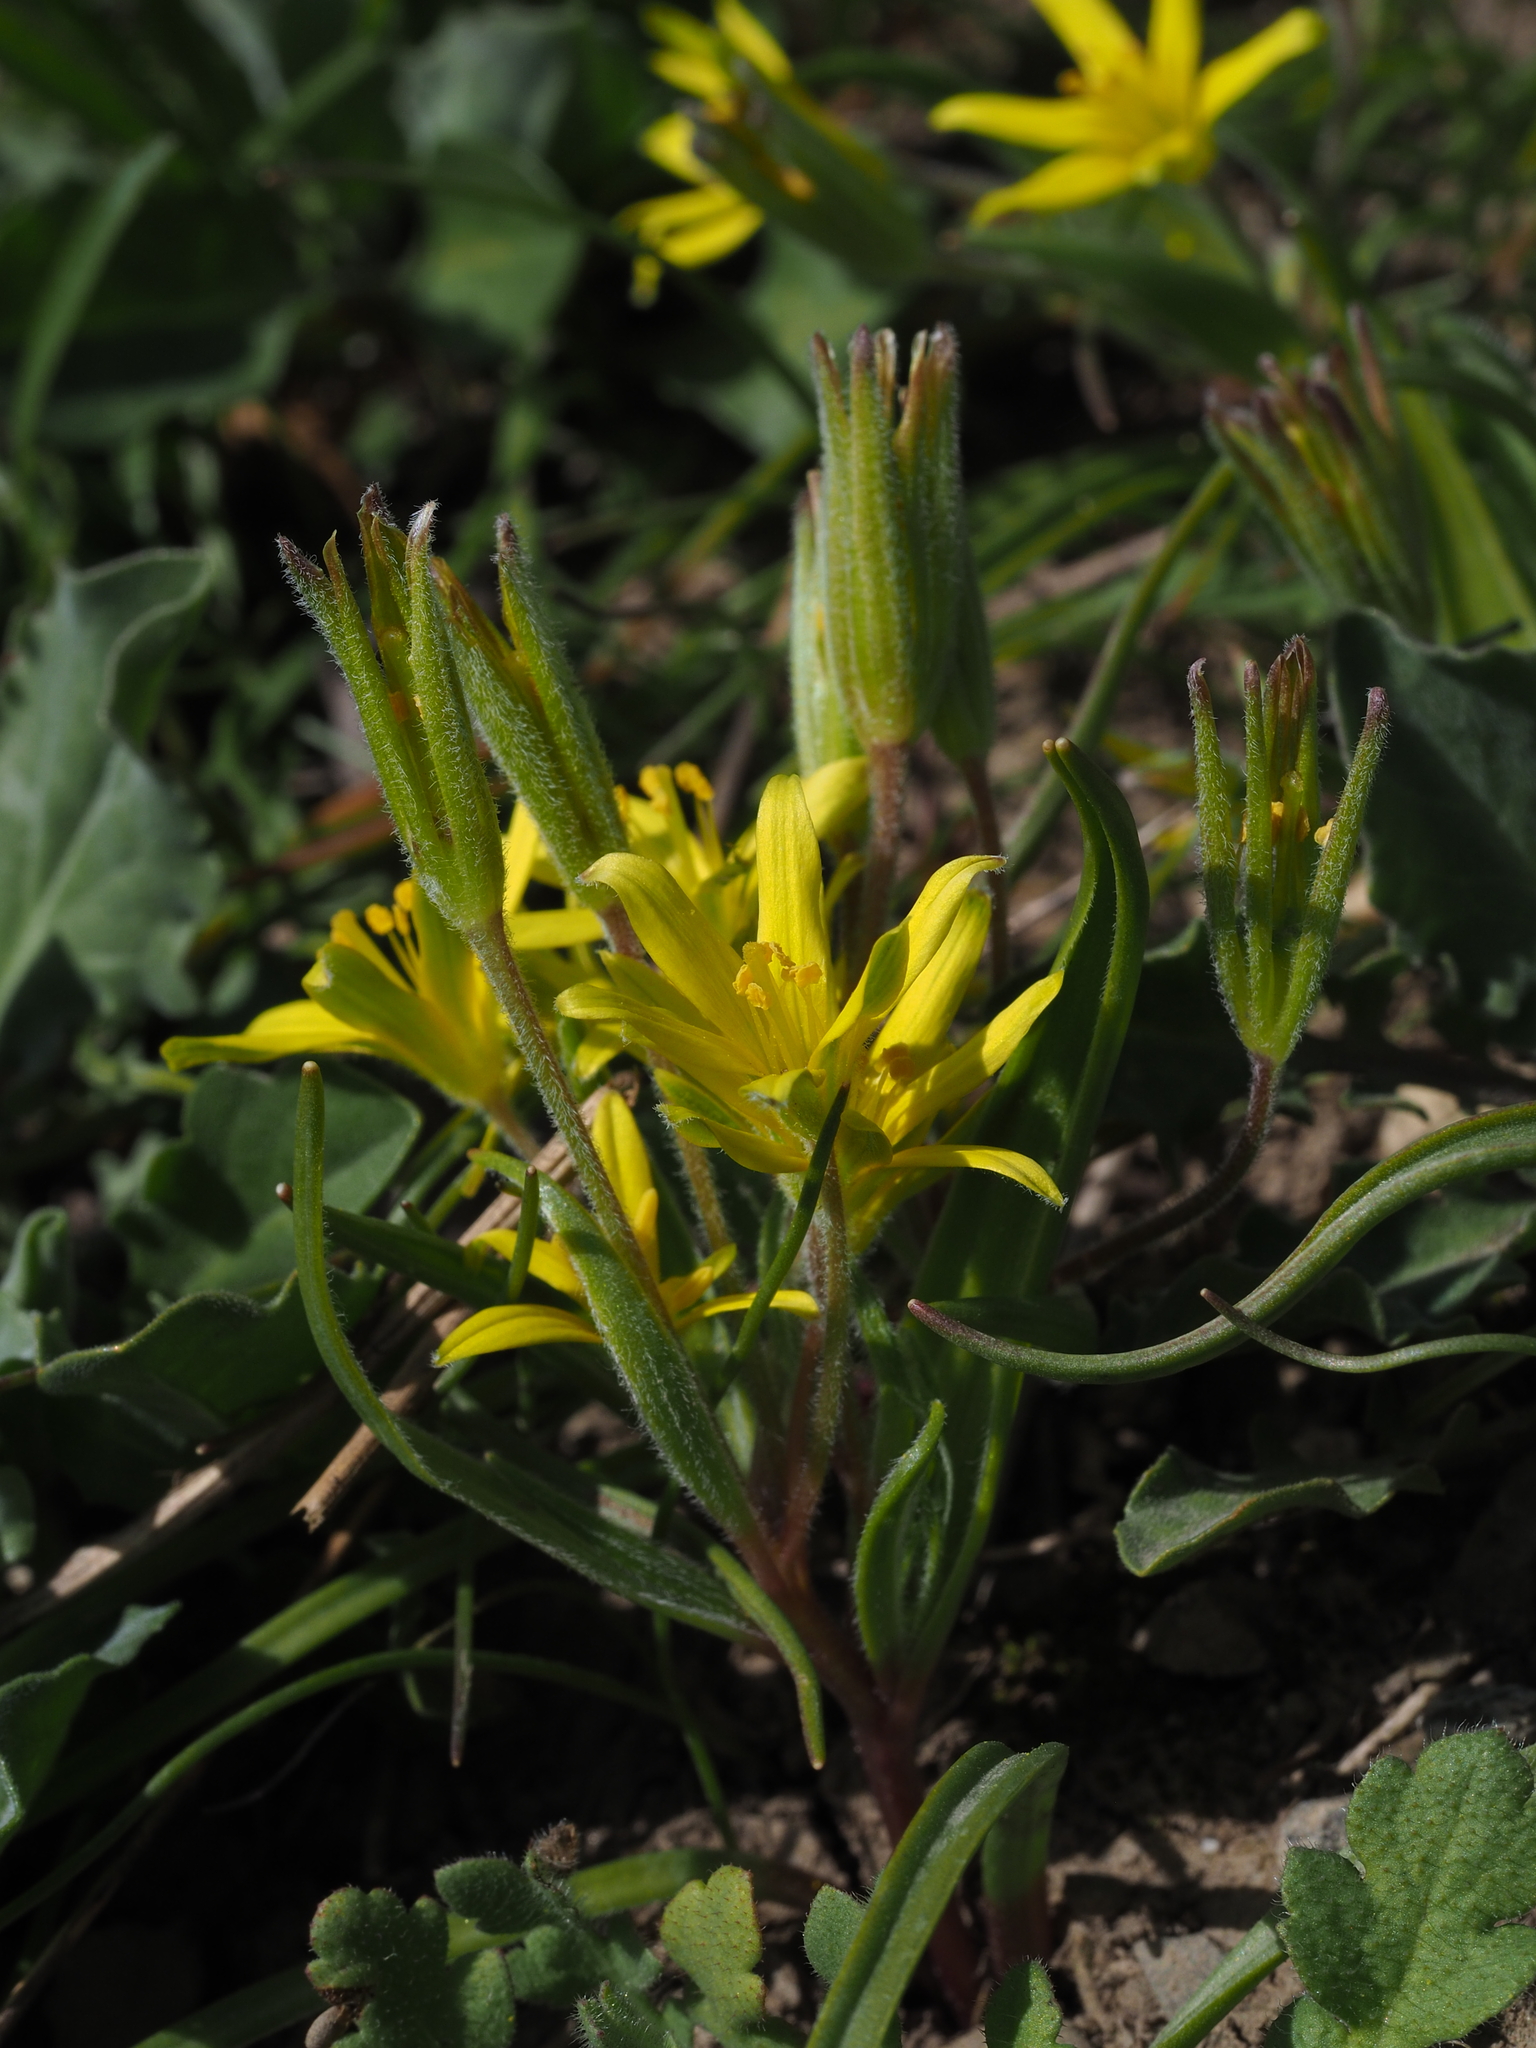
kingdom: Plantae
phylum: Tracheophyta
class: Liliopsida
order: Liliales
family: Liliaceae
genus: Gagea
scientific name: Gagea villosa
